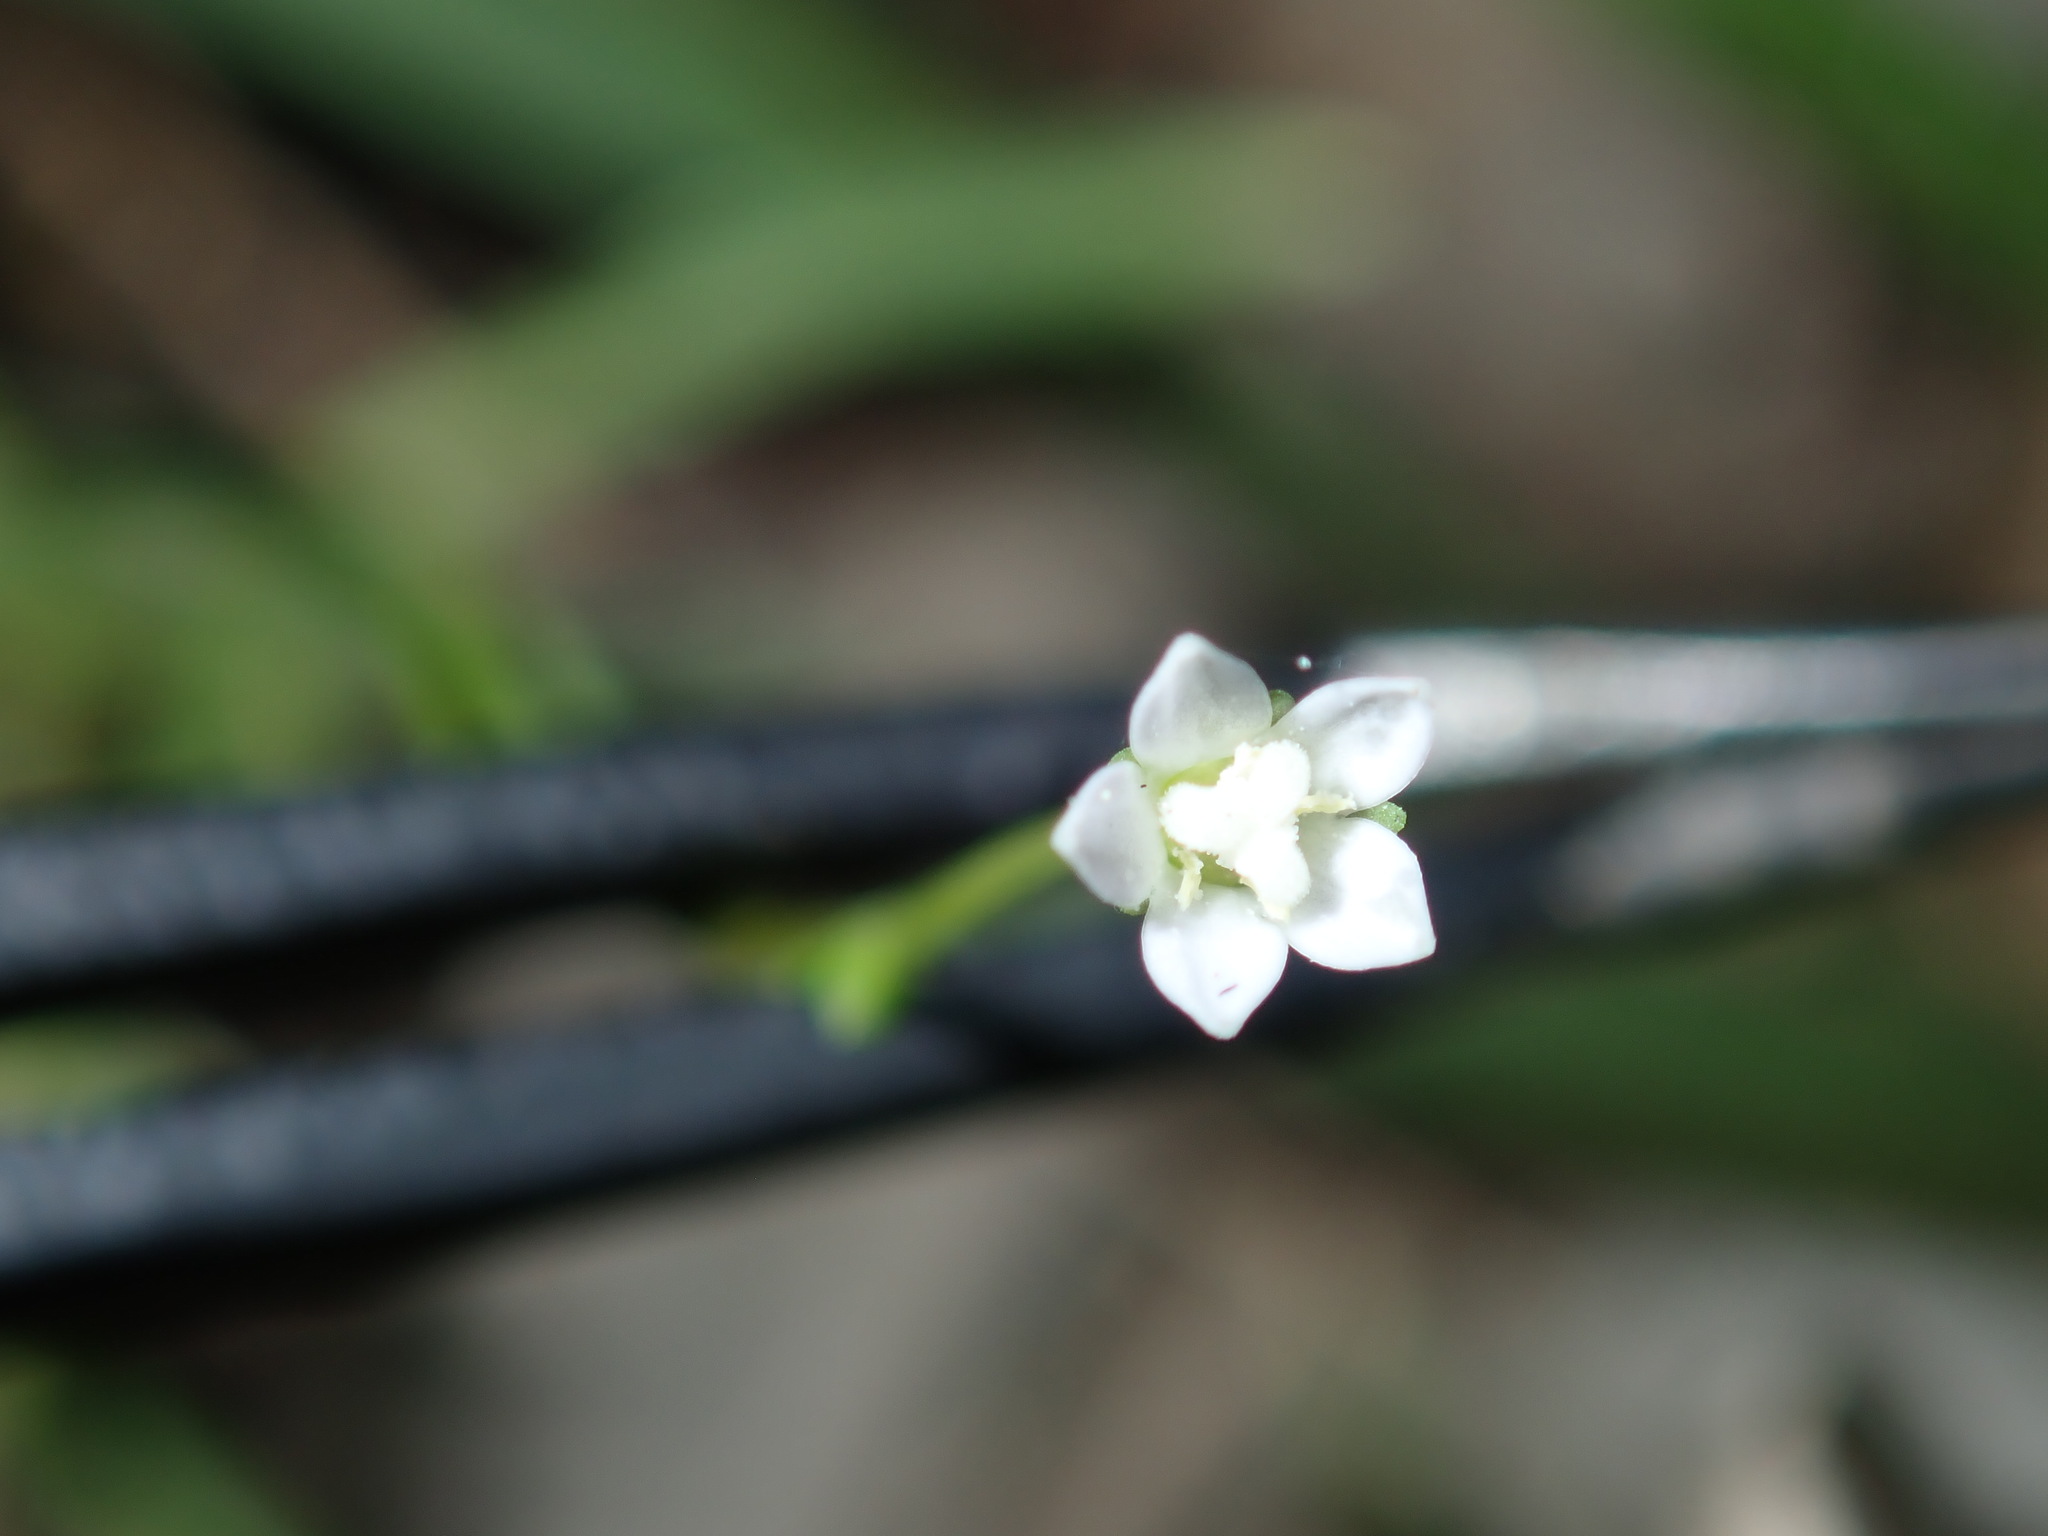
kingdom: Plantae
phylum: Tracheophyta
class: Magnoliopsida
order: Asterales
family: Campanulaceae
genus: Wahlenbergia
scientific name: Wahlenbergia gracilis
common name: Harebell
